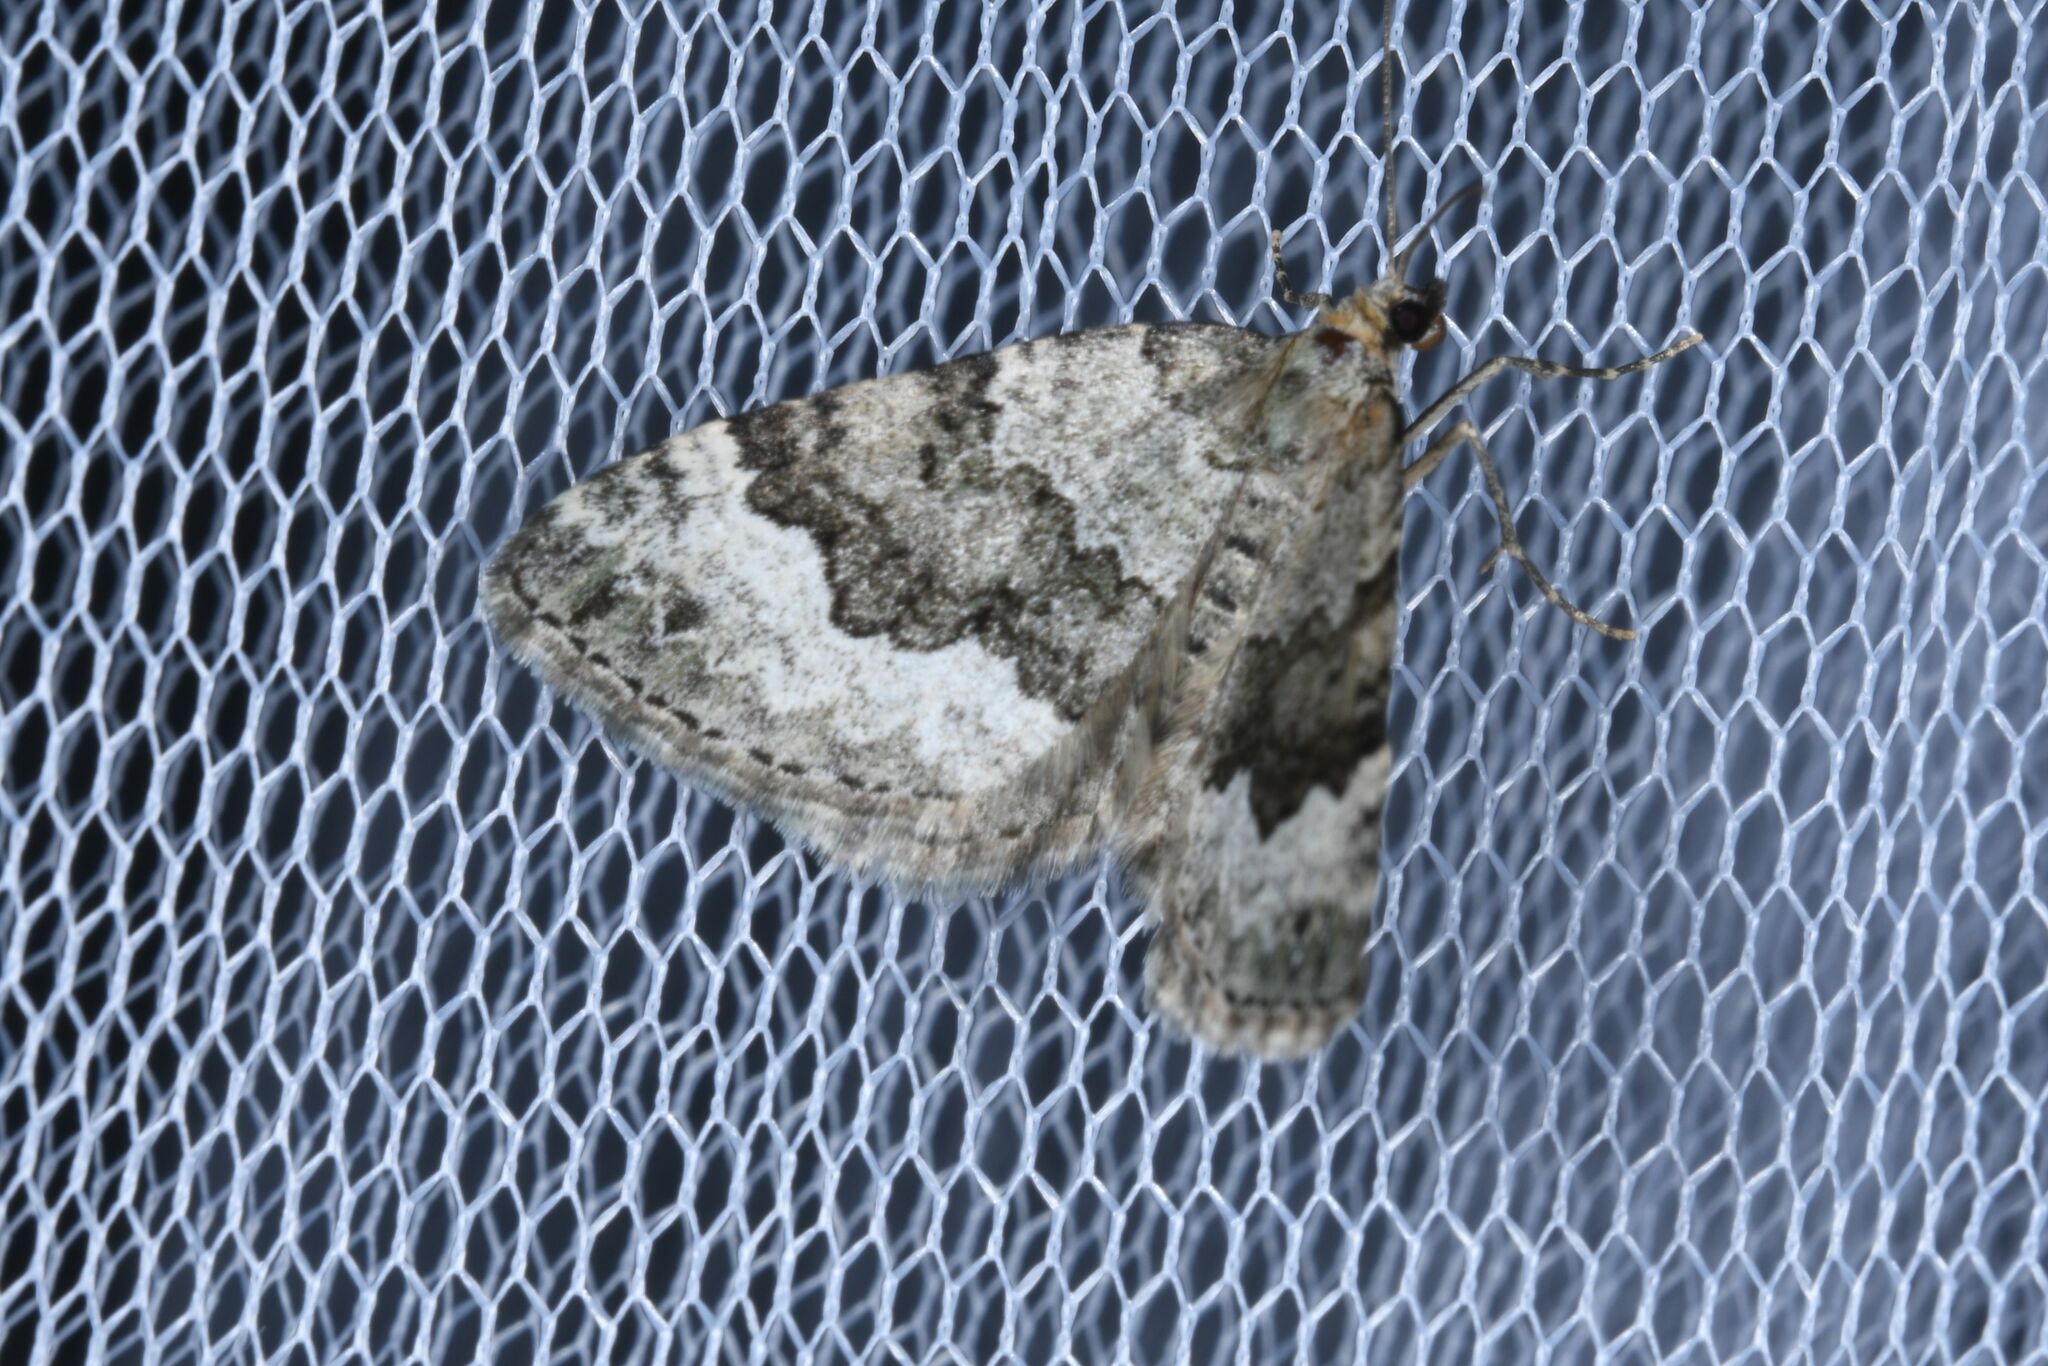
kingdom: Animalia
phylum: Arthropoda
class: Insecta
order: Lepidoptera
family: Geometridae
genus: Colostygia
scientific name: Colostygia aptata
